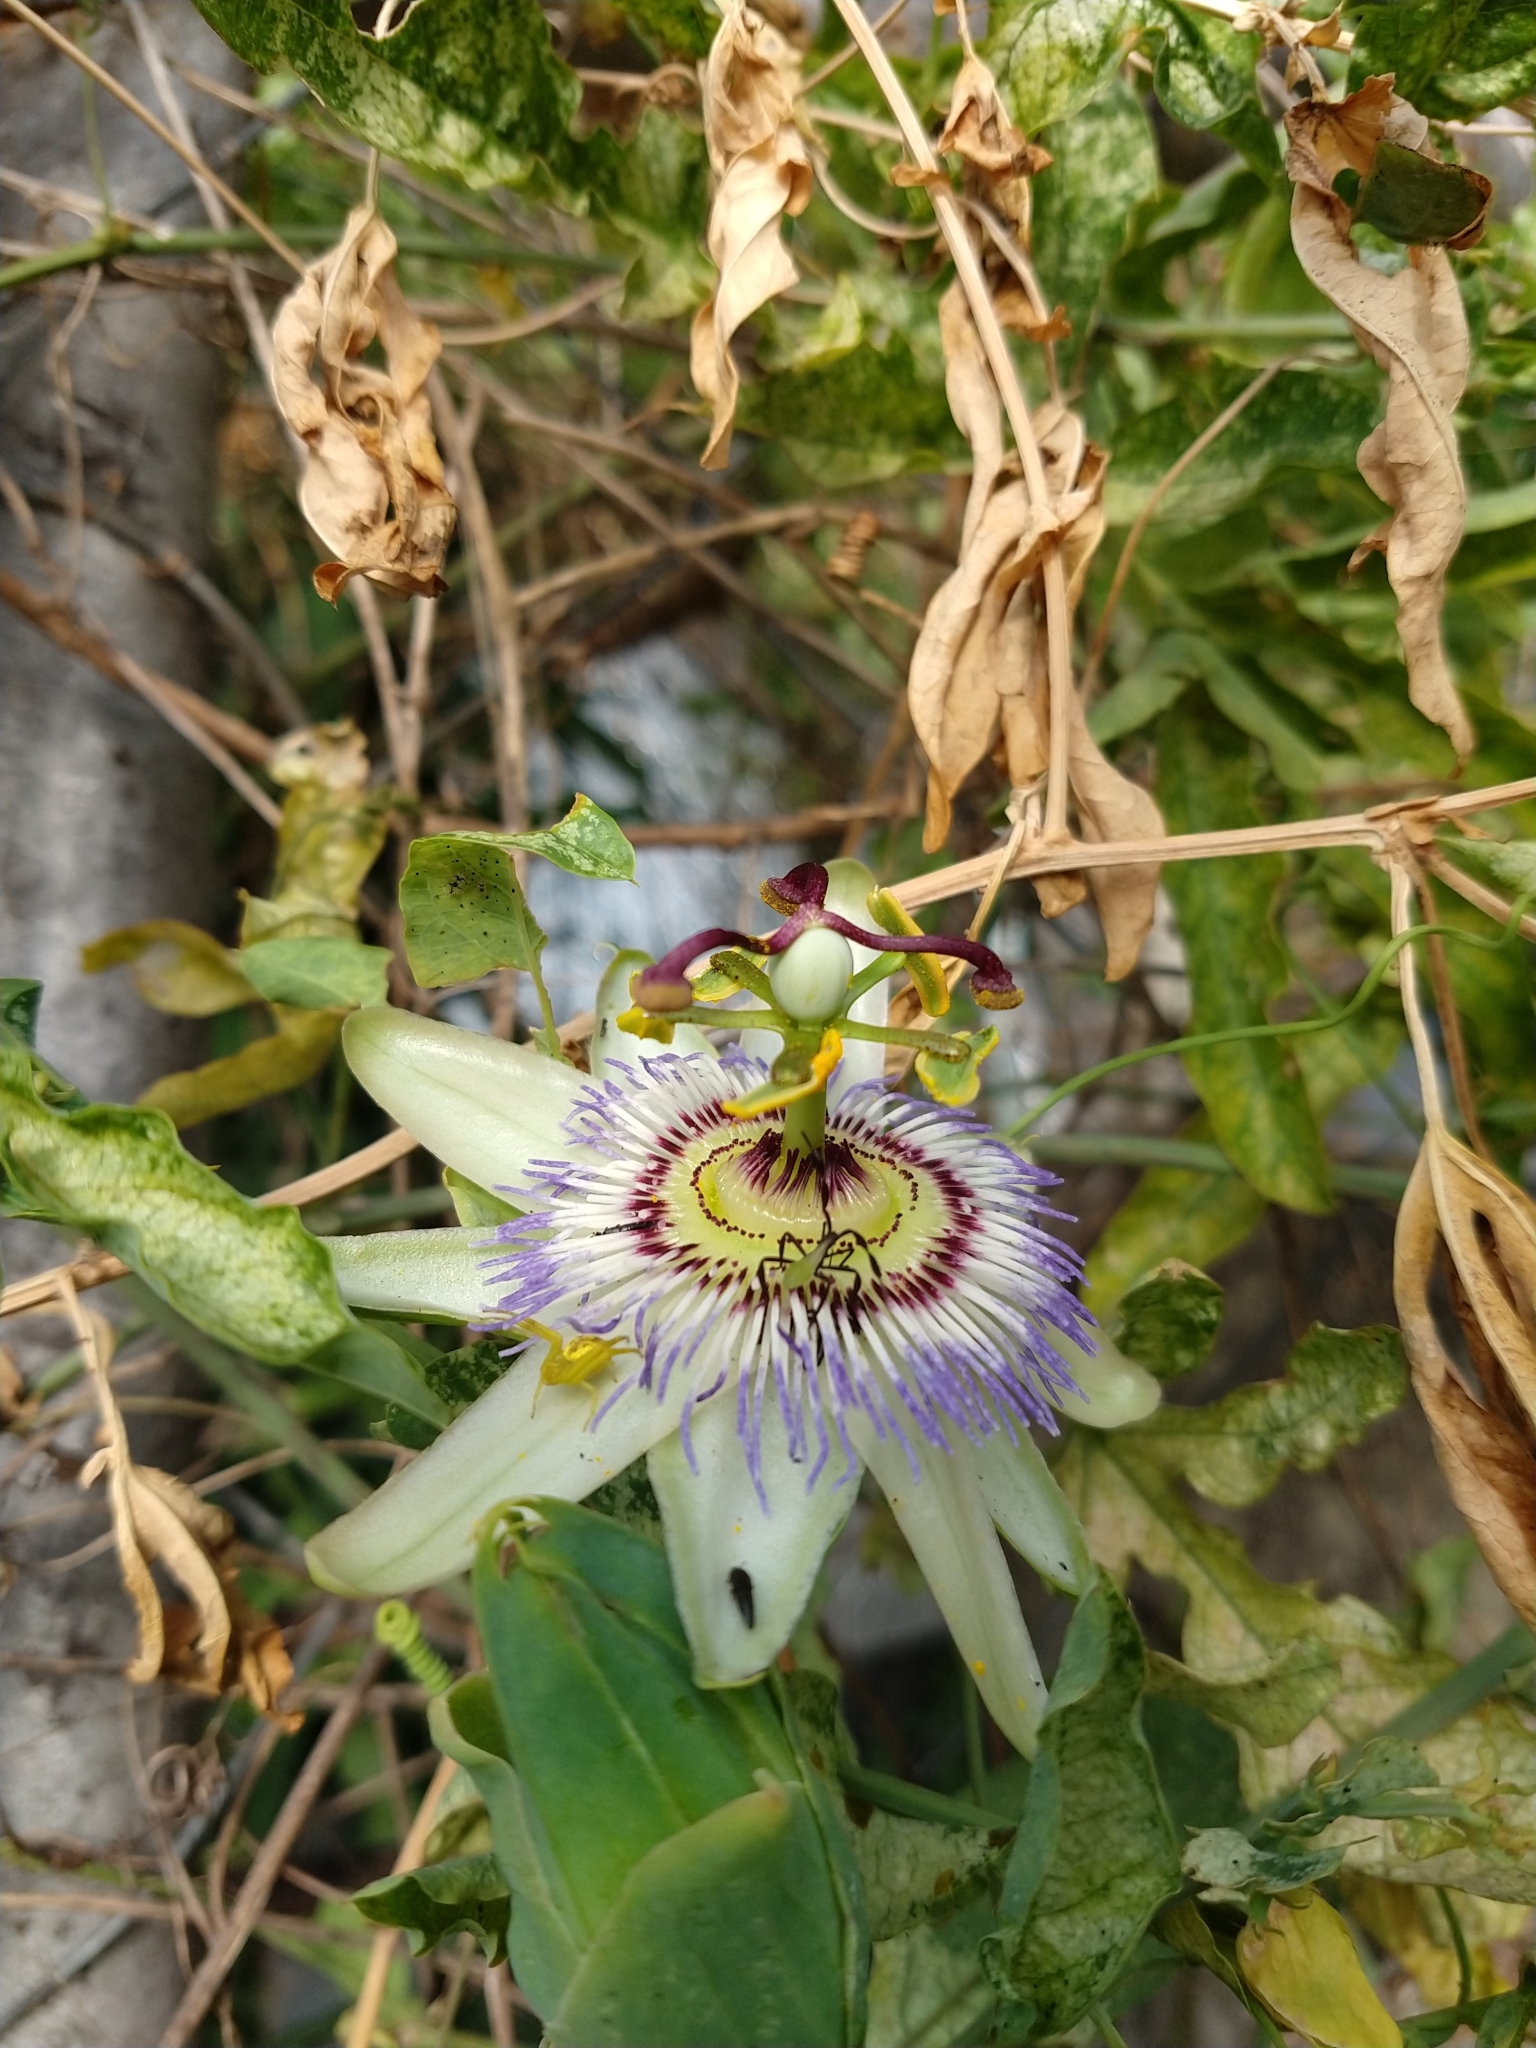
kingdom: Plantae
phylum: Tracheophyta
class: Magnoliopsida
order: Malpighiales
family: Passifloraceae
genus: Passiflora
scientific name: Passiflora caerulea
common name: Blue passionflower
